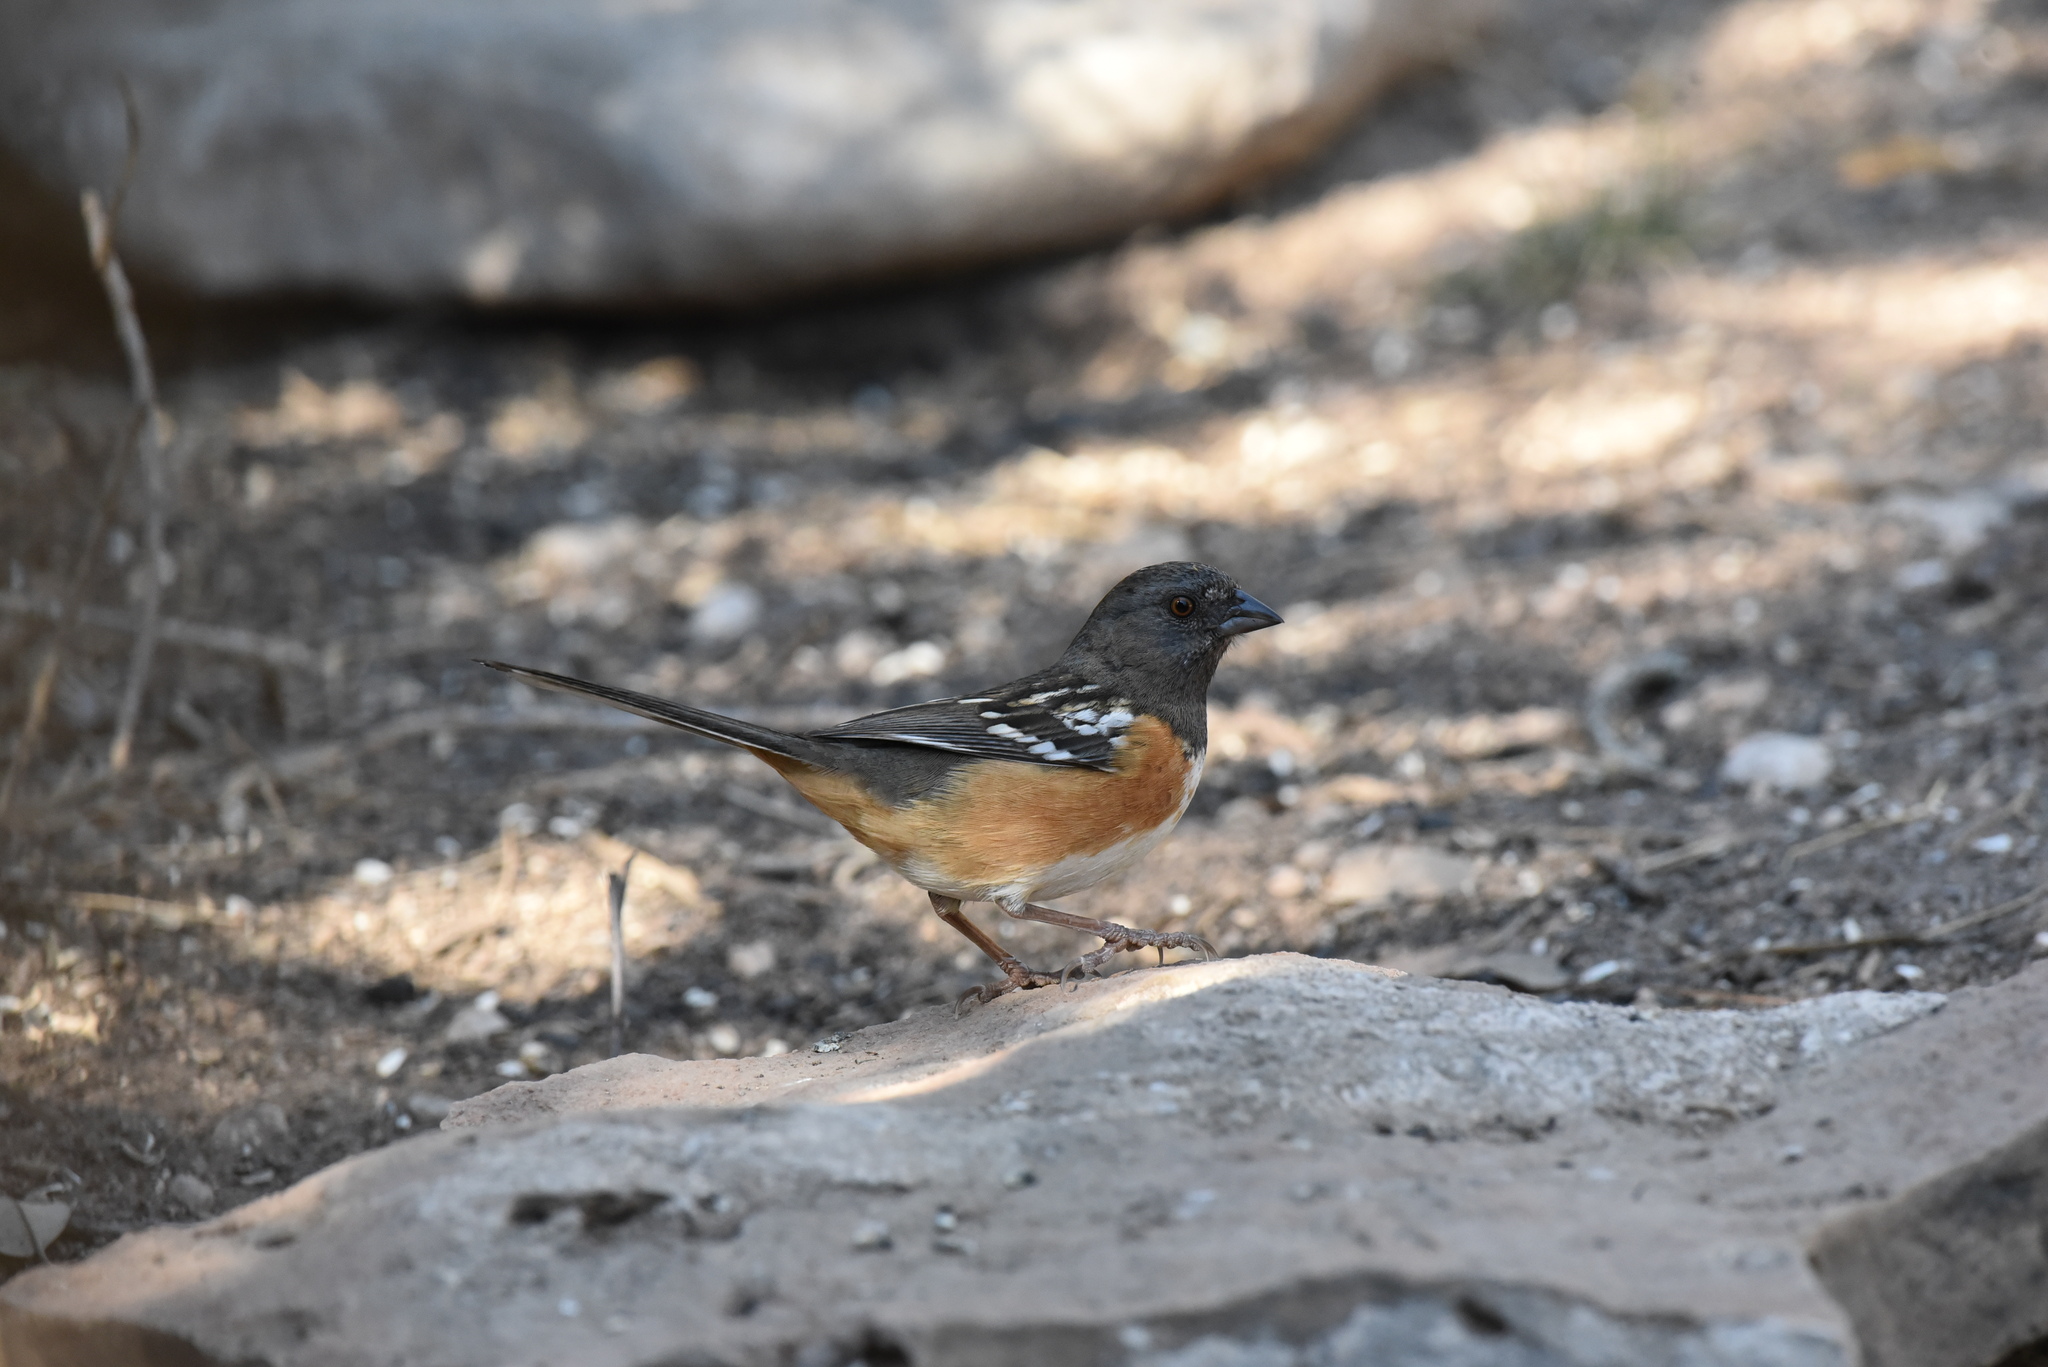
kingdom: Animalia
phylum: Chordata
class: Aves
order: Passeriformes
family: Passerellidae
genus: Pipilo
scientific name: Pipilo maculatus
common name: Spotted towhee
